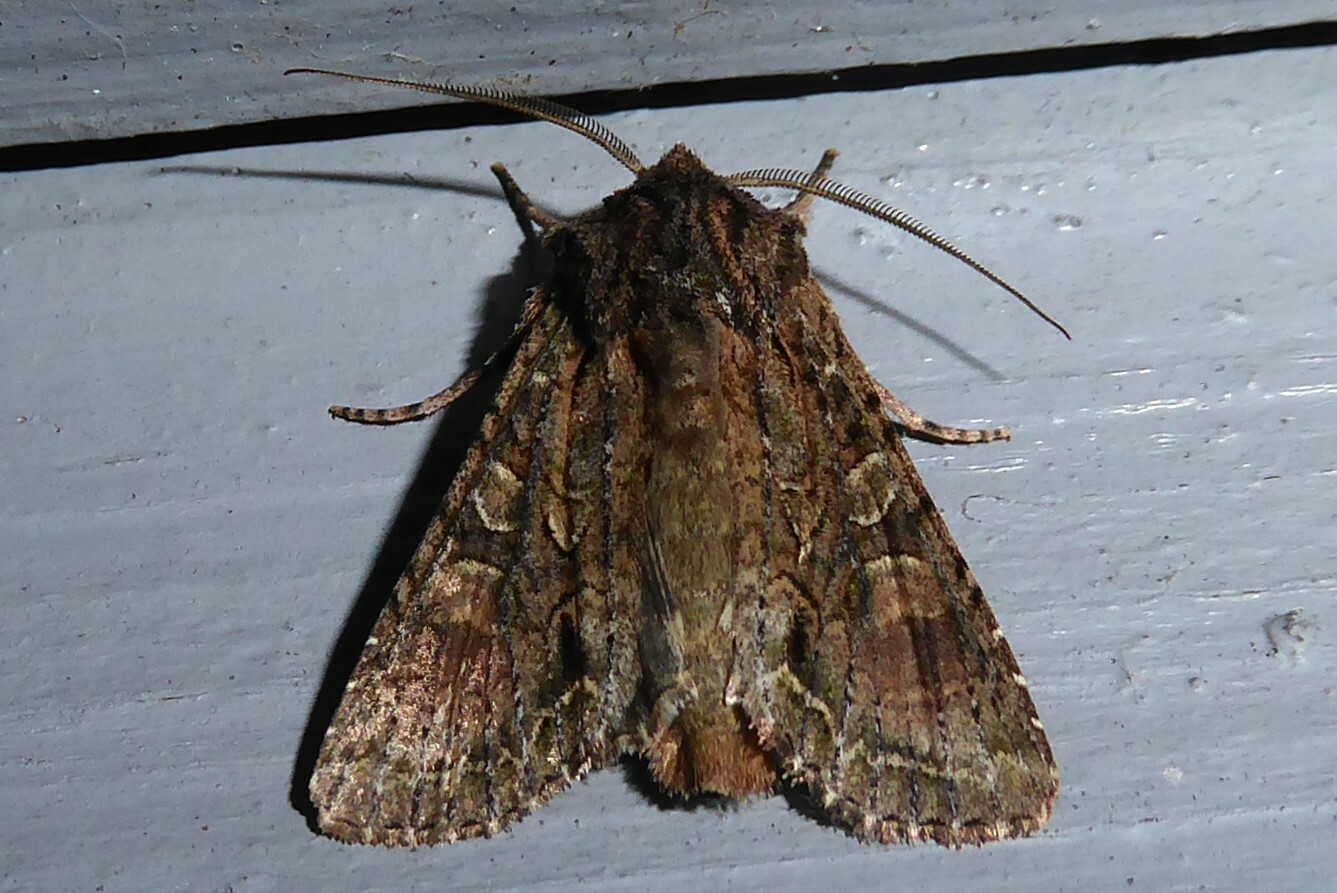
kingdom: Animalia
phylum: Arthropoda
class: Insecta
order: Lepidoptera
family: Noctuidae
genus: Ichneutica
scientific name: Ichneutica mutans
